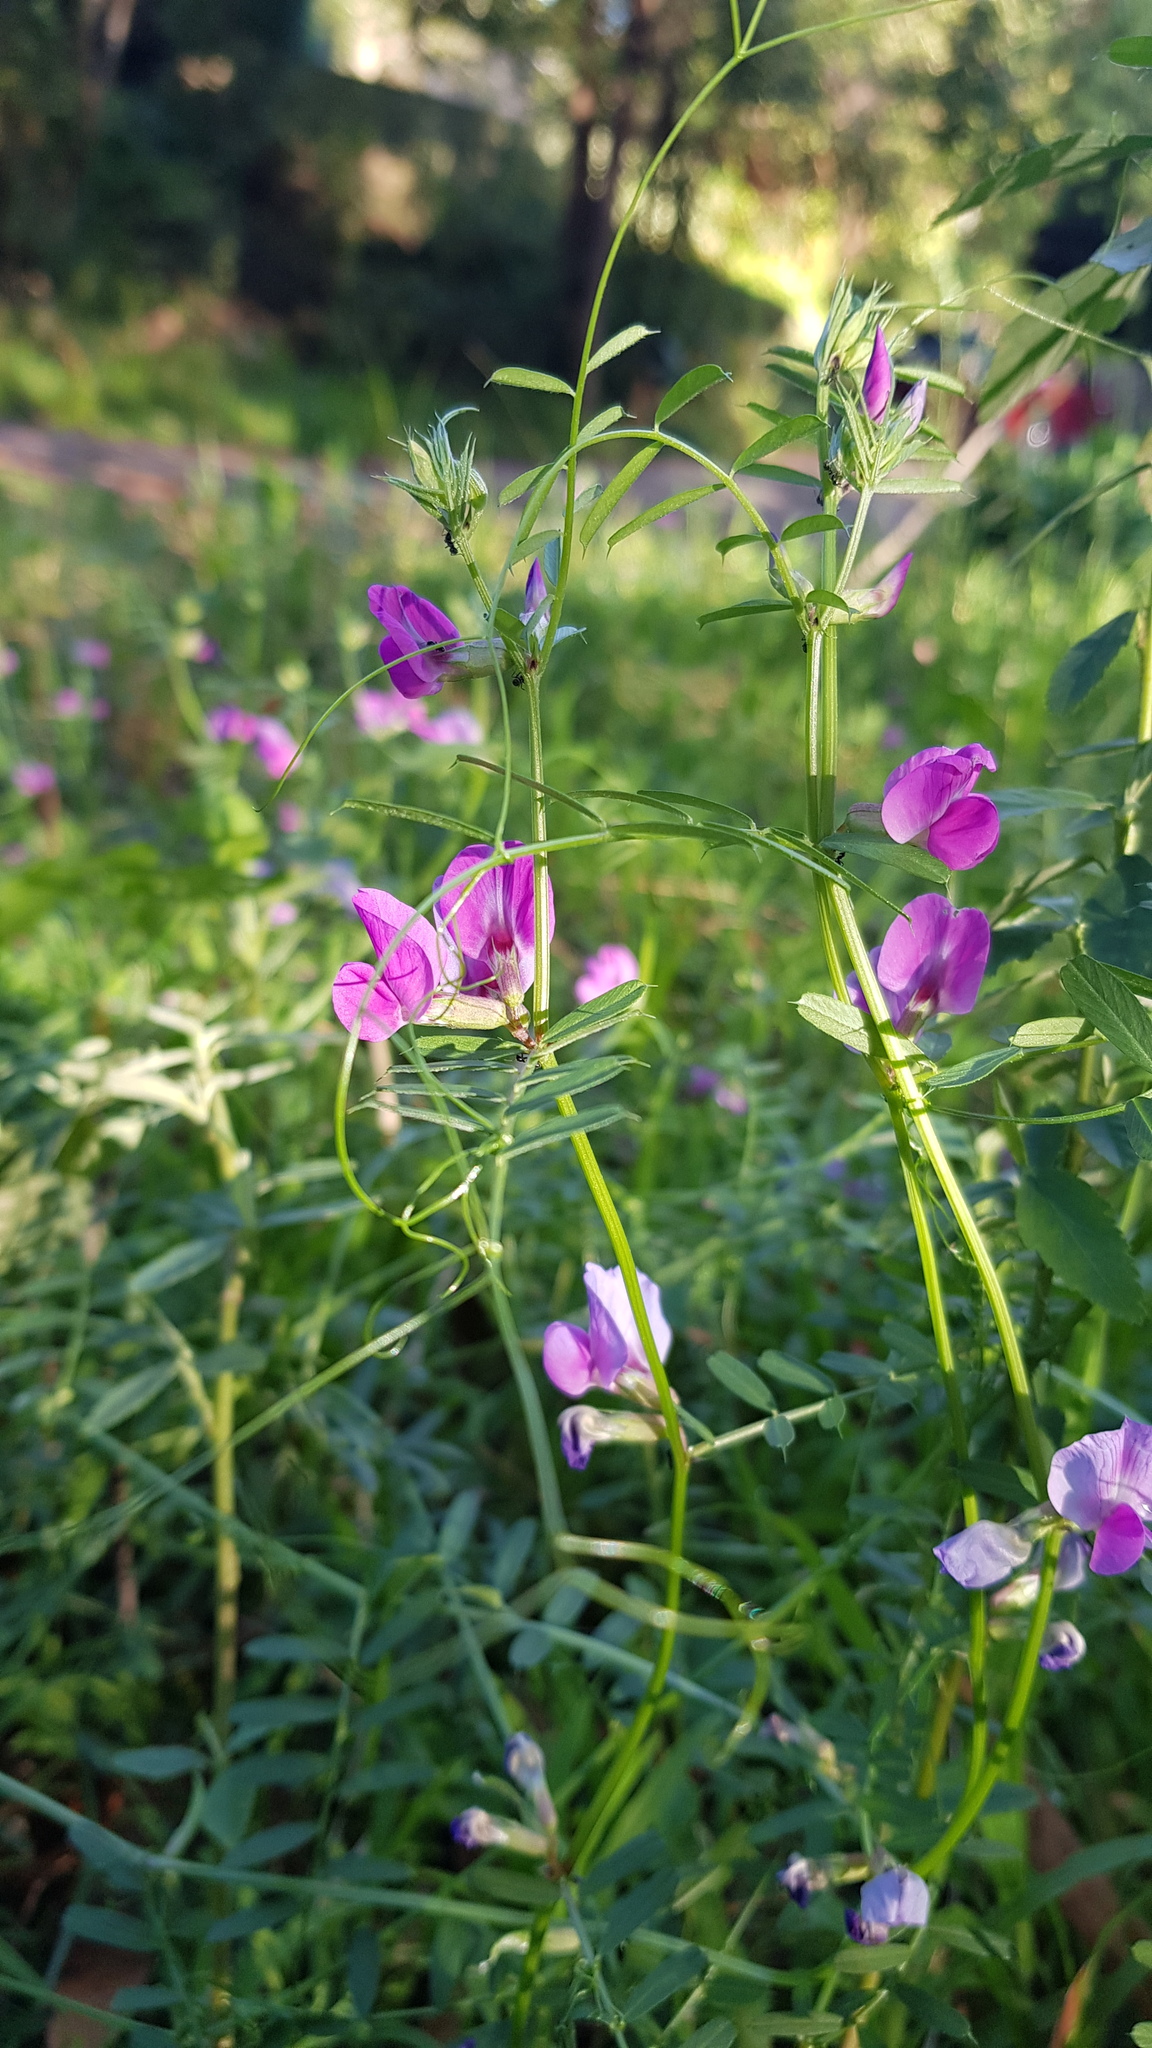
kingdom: Plantae
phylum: Tracheophyta
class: Magnoliopsida
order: Fabales
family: Fabaceae
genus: Vicia
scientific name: Vicia sativa
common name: Garden vetch
